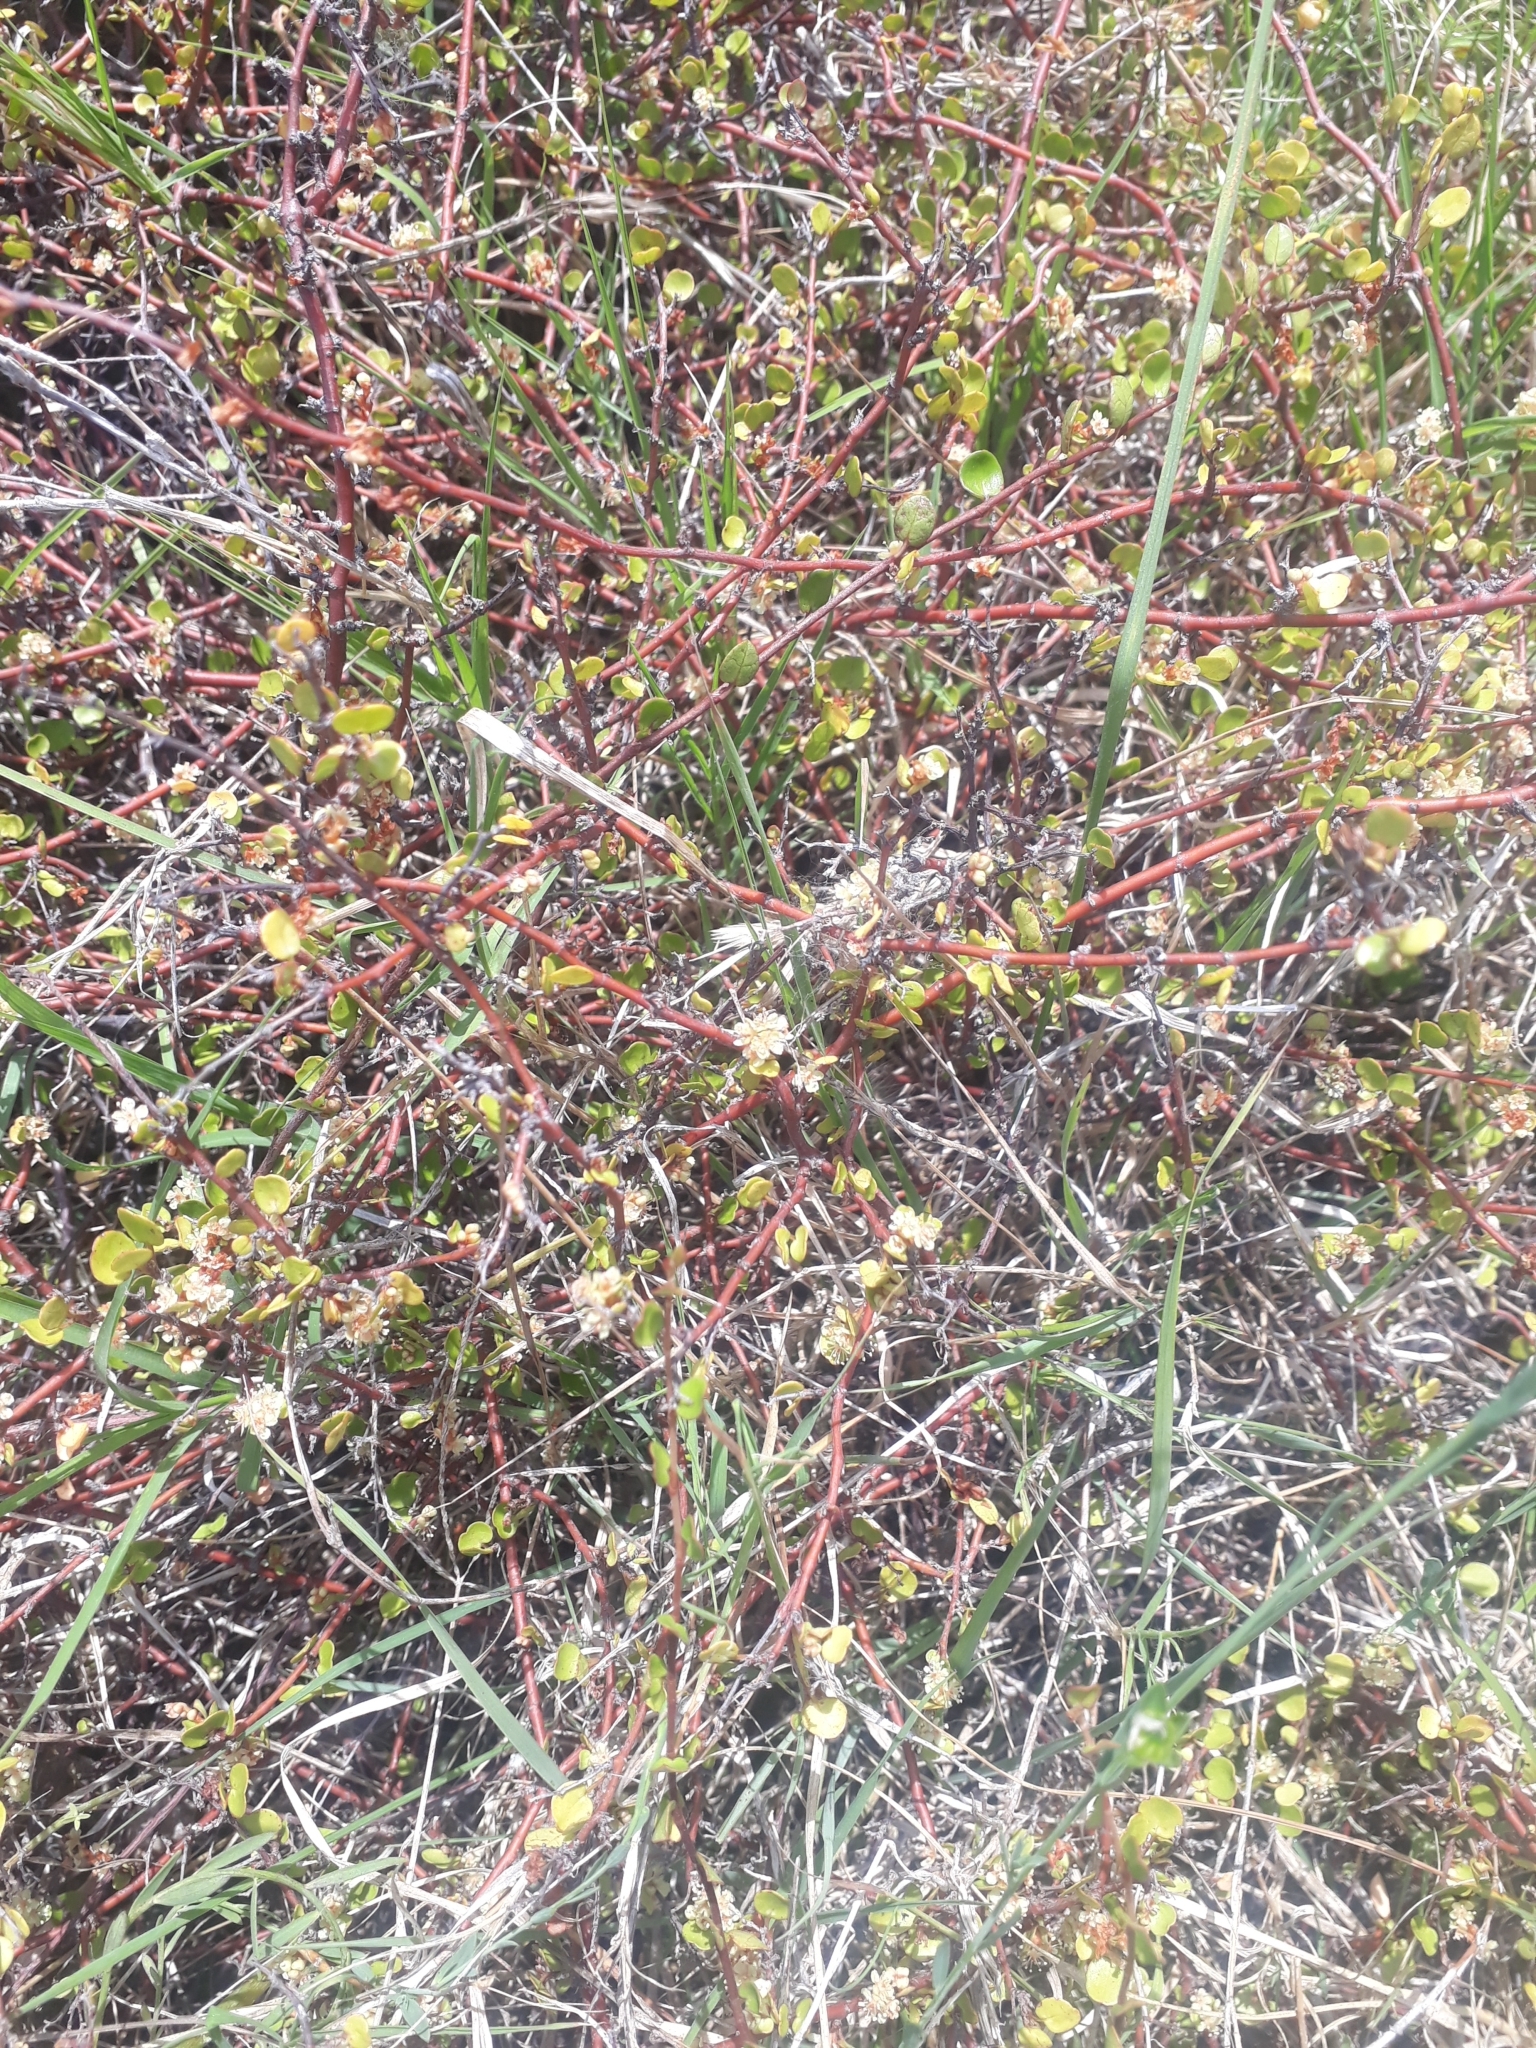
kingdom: Plantae
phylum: Tracheophyta
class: Magnoliopsida
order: Caryophyllales
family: Polygonaceae
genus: Muehlenbeckia
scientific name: Muehlenbeckia complexa
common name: Wireplant
